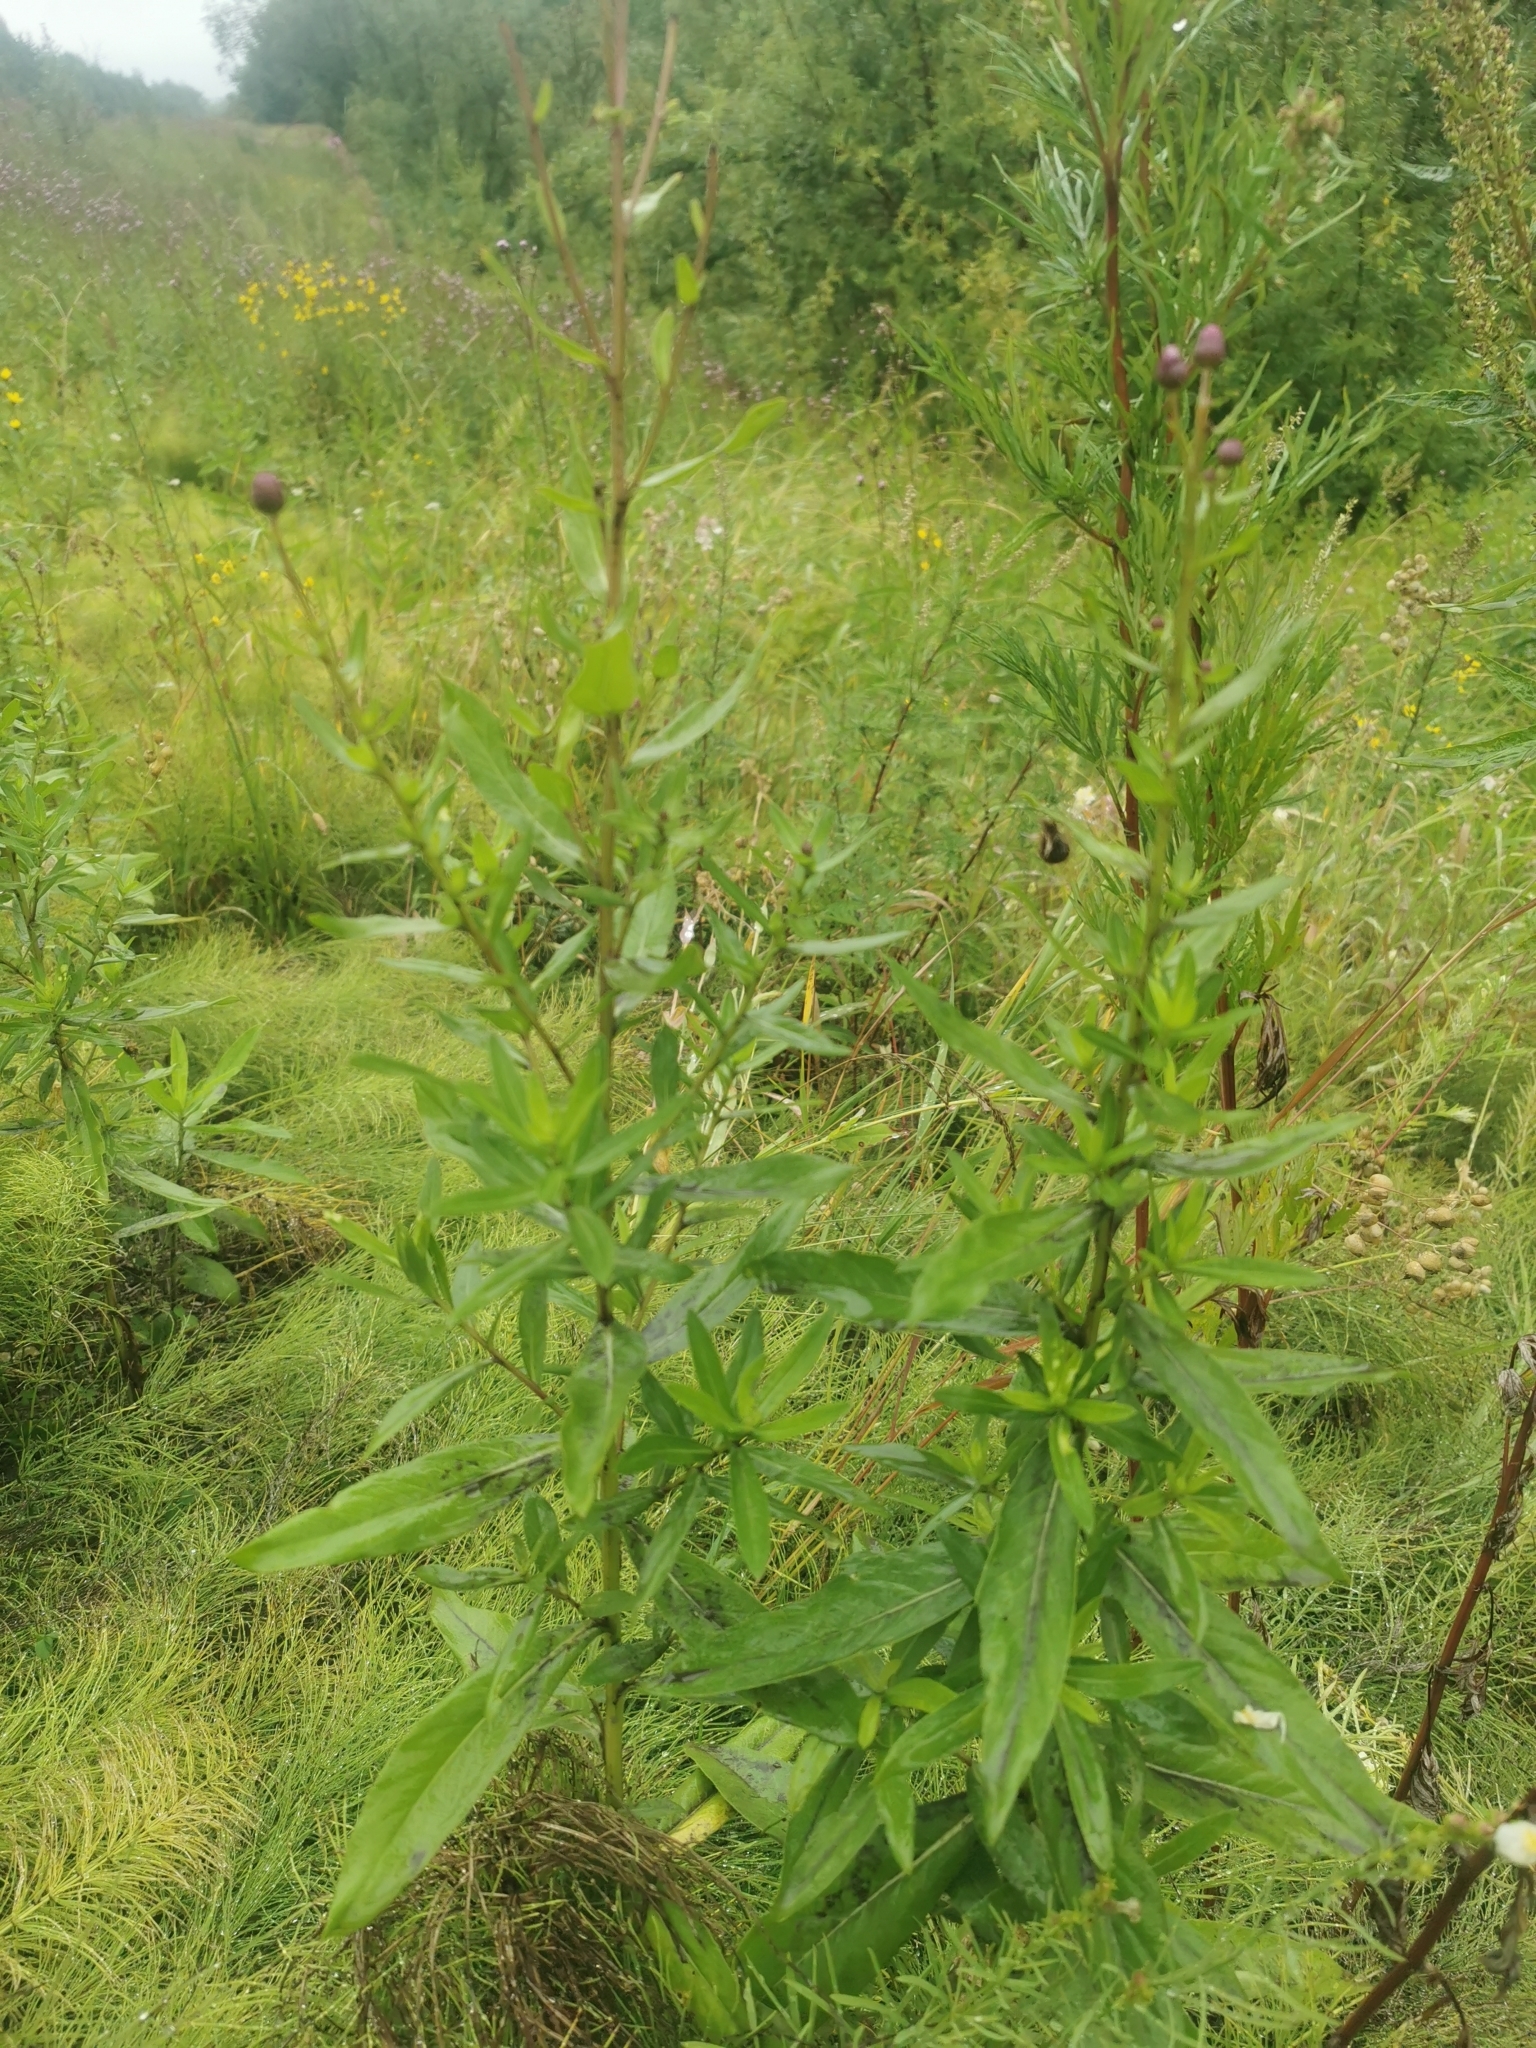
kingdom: Plantae
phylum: Tracheophyta
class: Magnoliopsida
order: Asterales
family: Asteraceae
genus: Cirsium
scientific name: Cirsium arvense
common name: Creeping thistle
